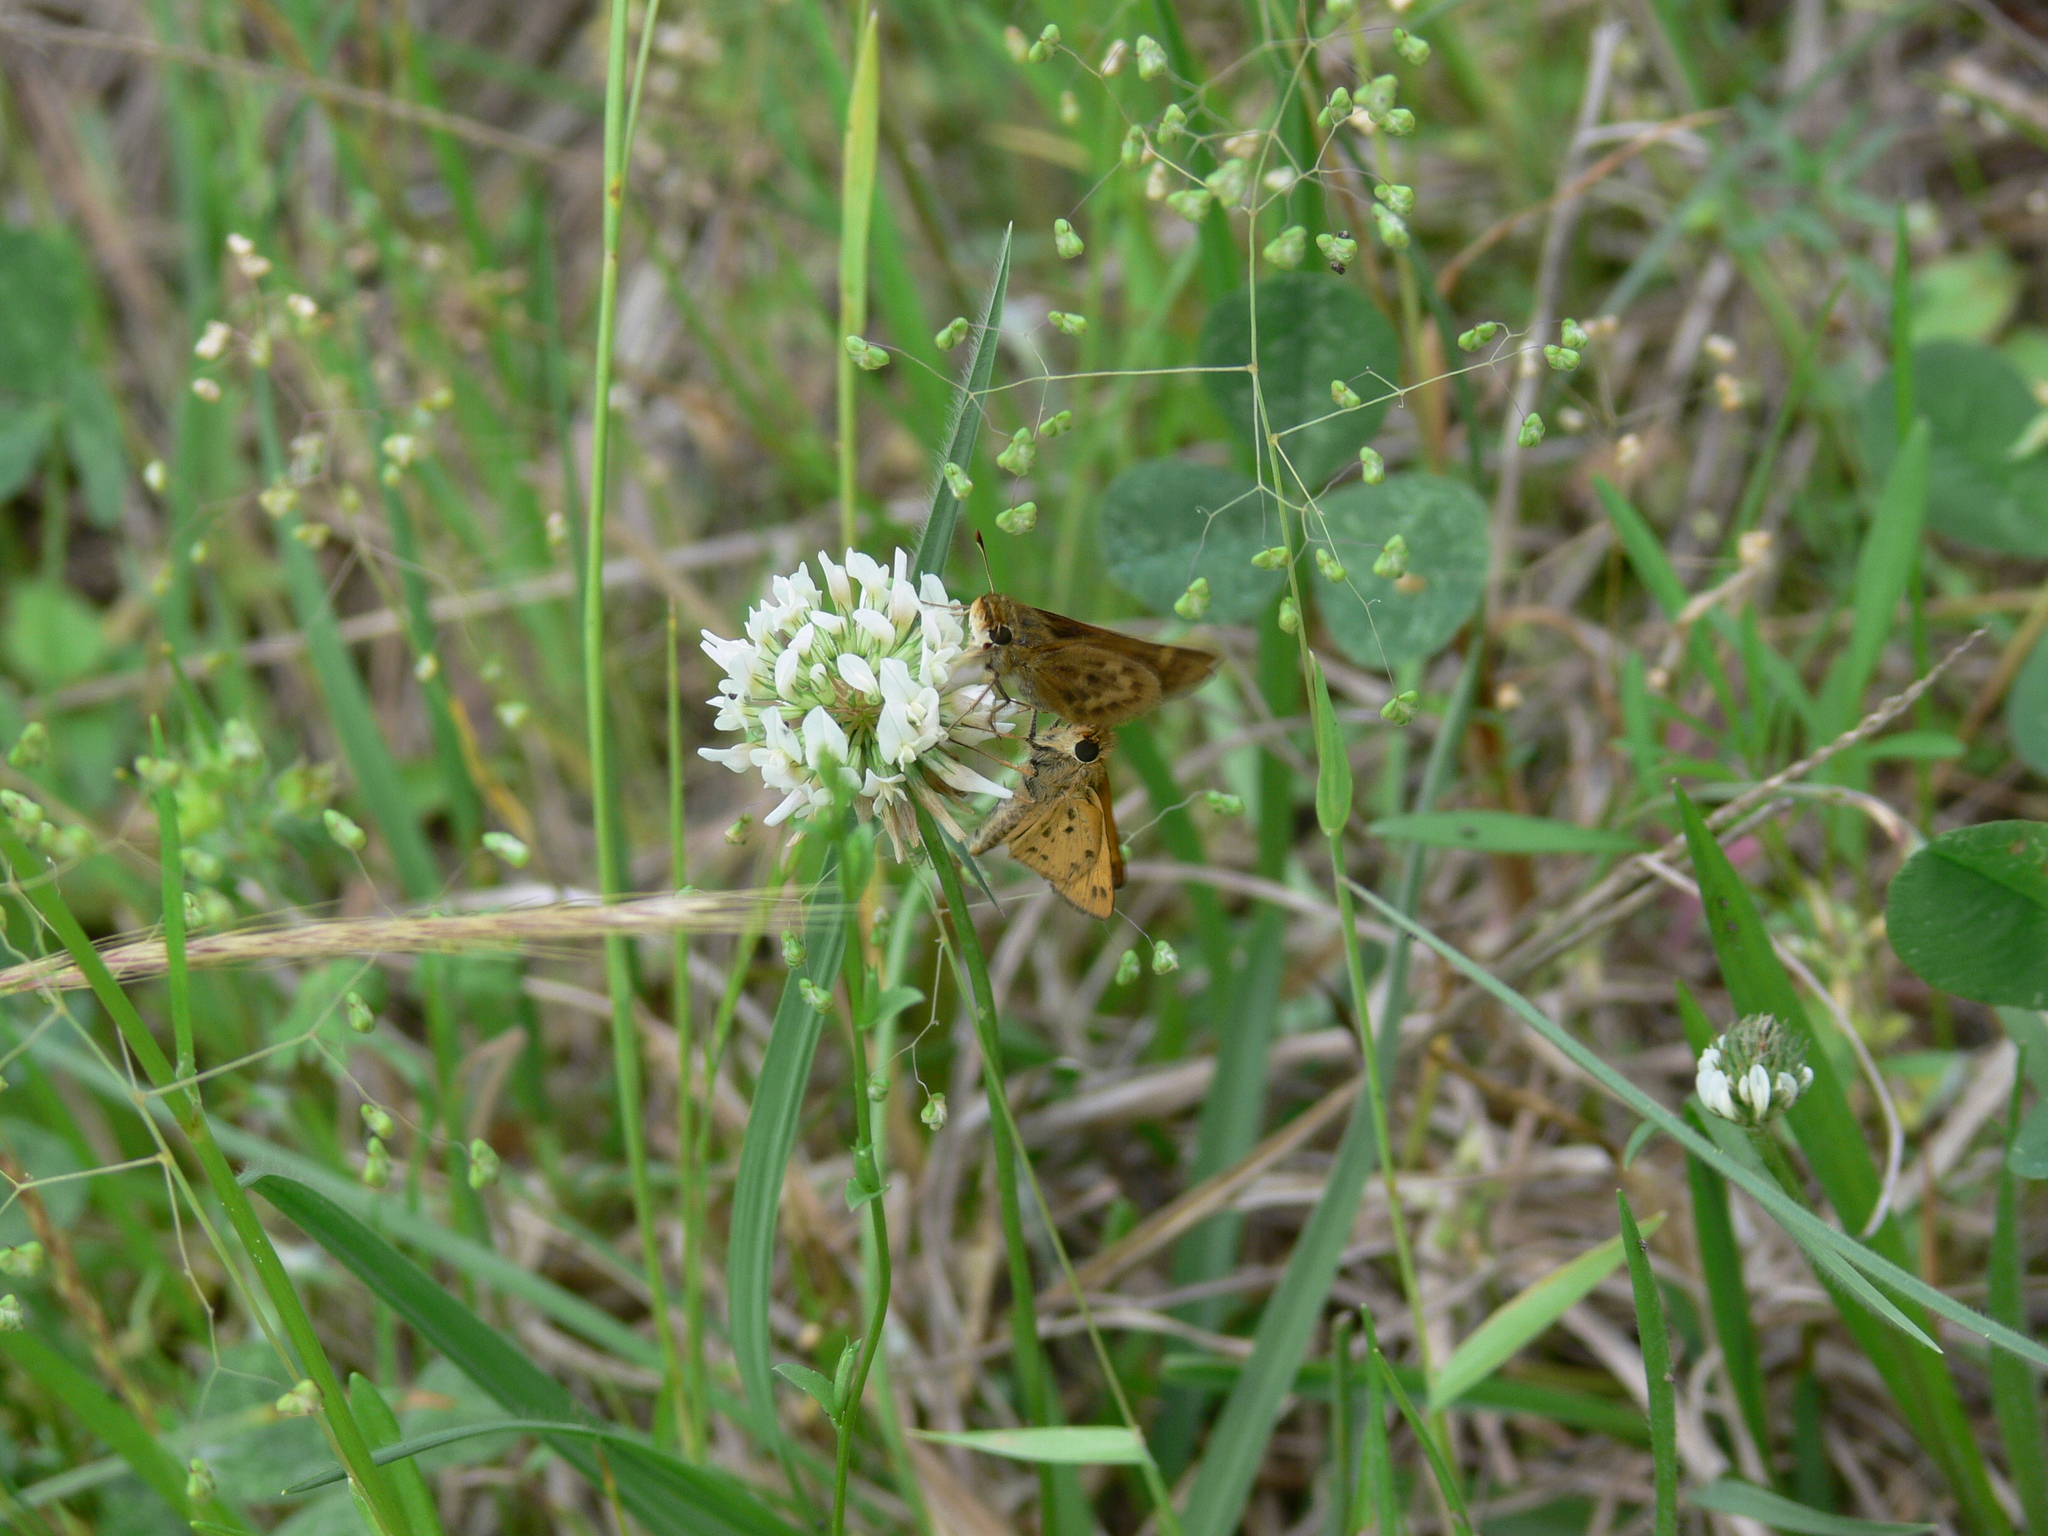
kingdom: Animalia
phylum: Arthropoda
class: Insecta
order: Lepidoptera
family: Hesperiidae
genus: Hylephila
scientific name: Hylephila phyleus
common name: Fiery skipper
